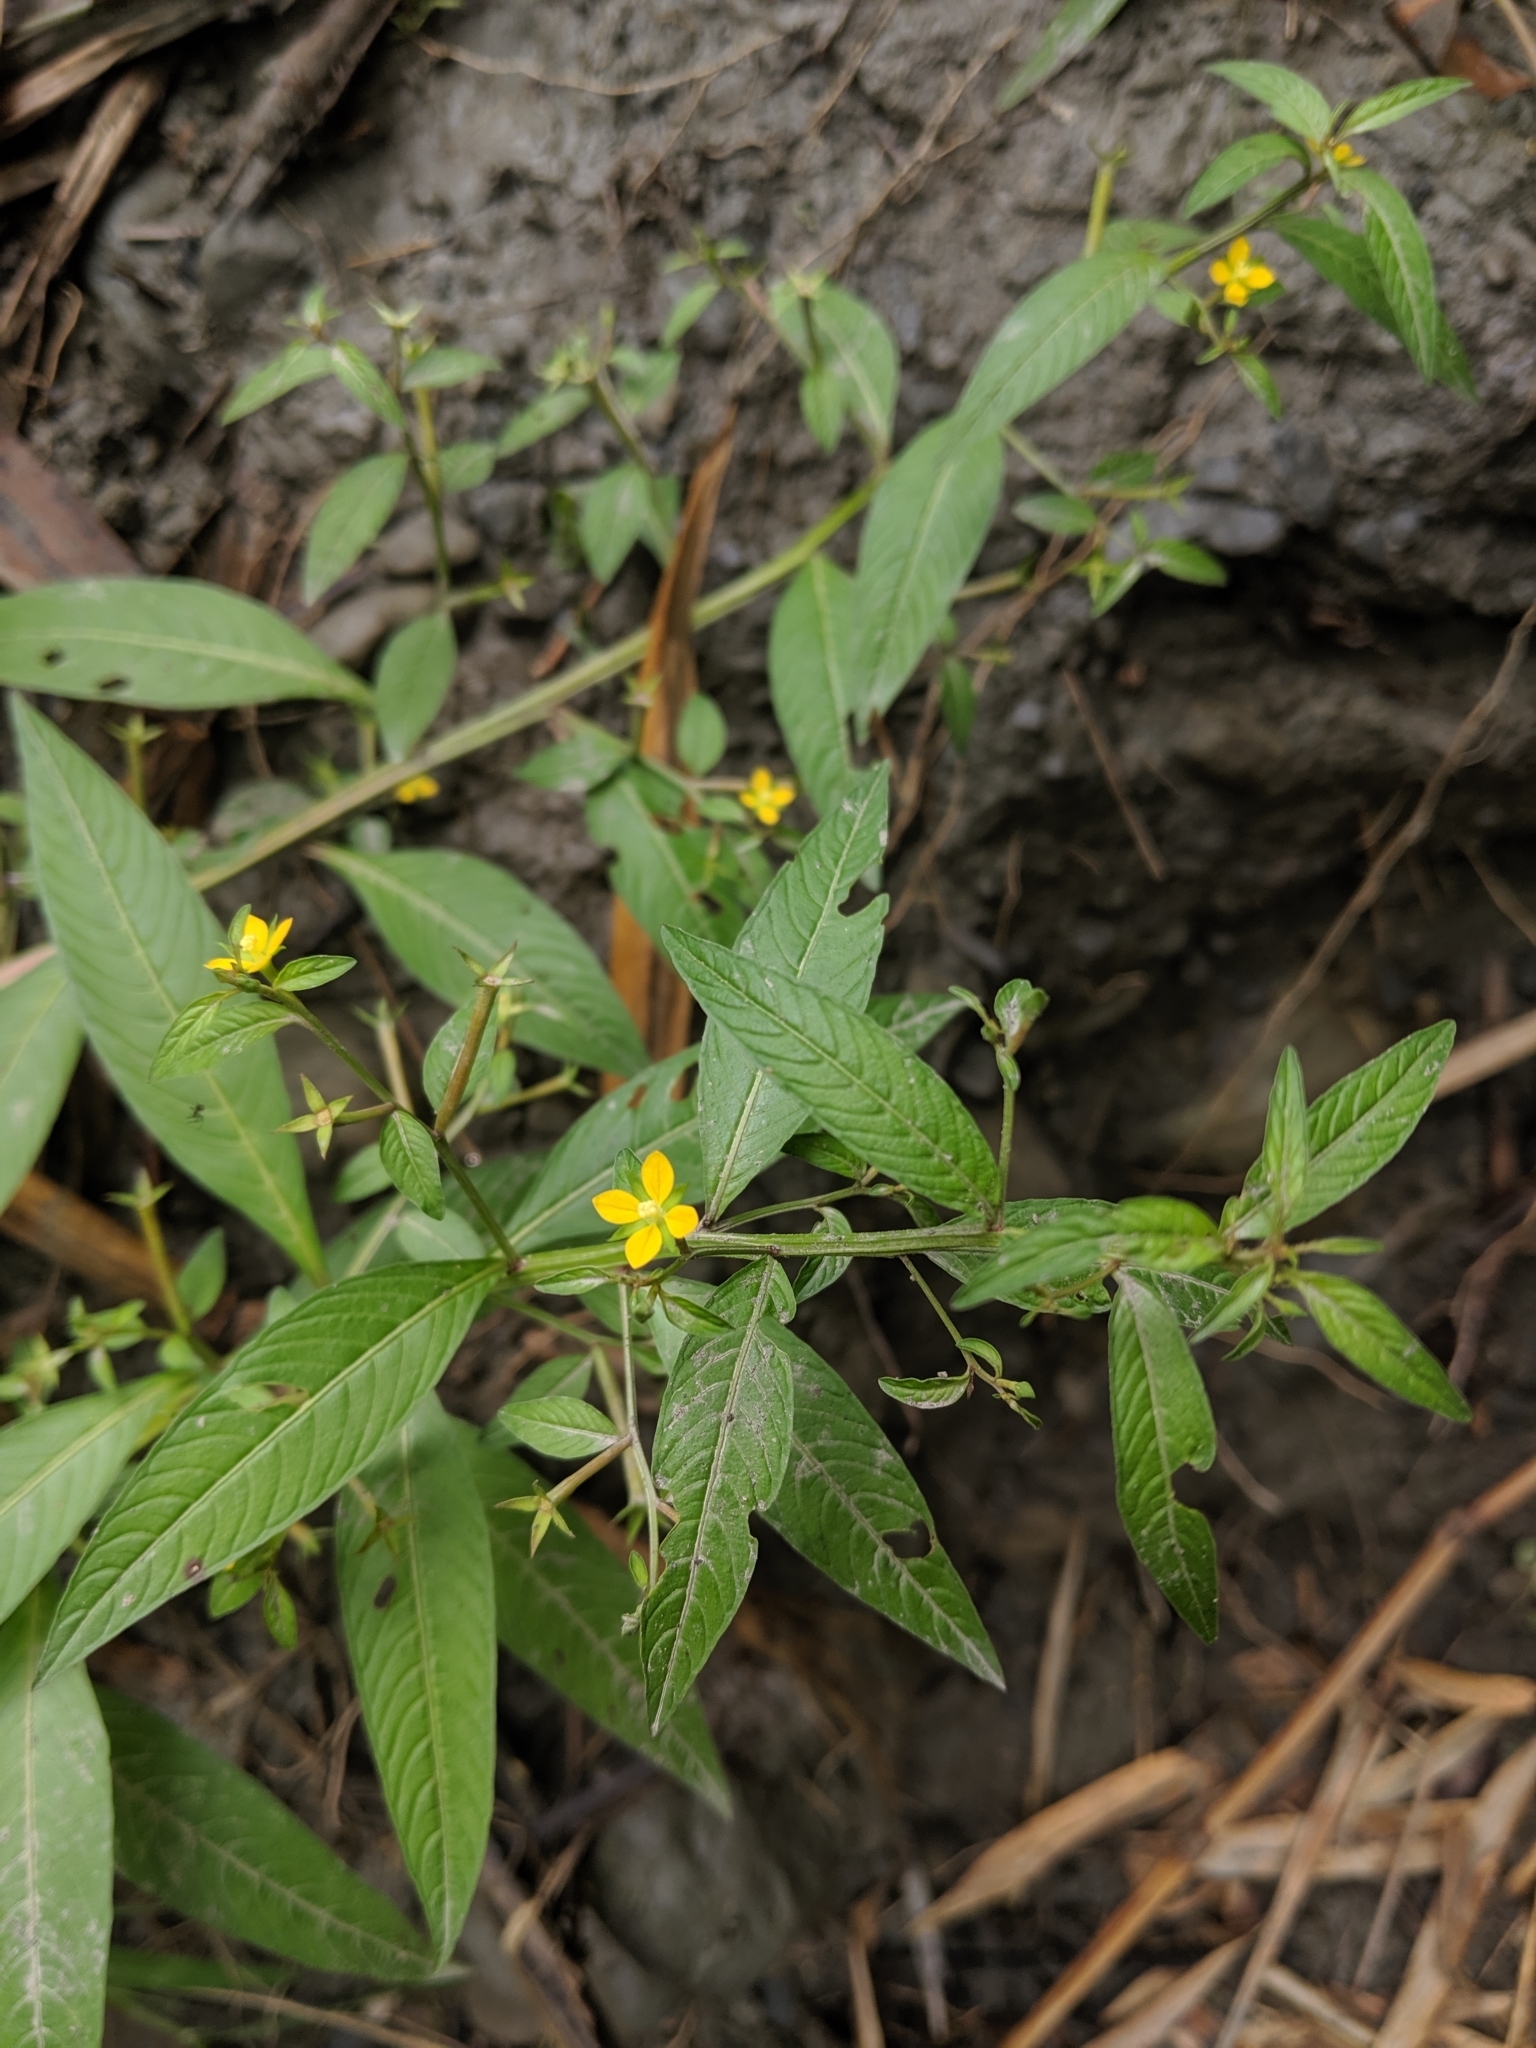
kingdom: Plantae
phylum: Tracheophyta
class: Magnoliopsida
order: Myrtales
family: Onagraceae
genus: Ludwigia
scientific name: Ludwigia hyssopifolia
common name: Linear leaf water primrose
